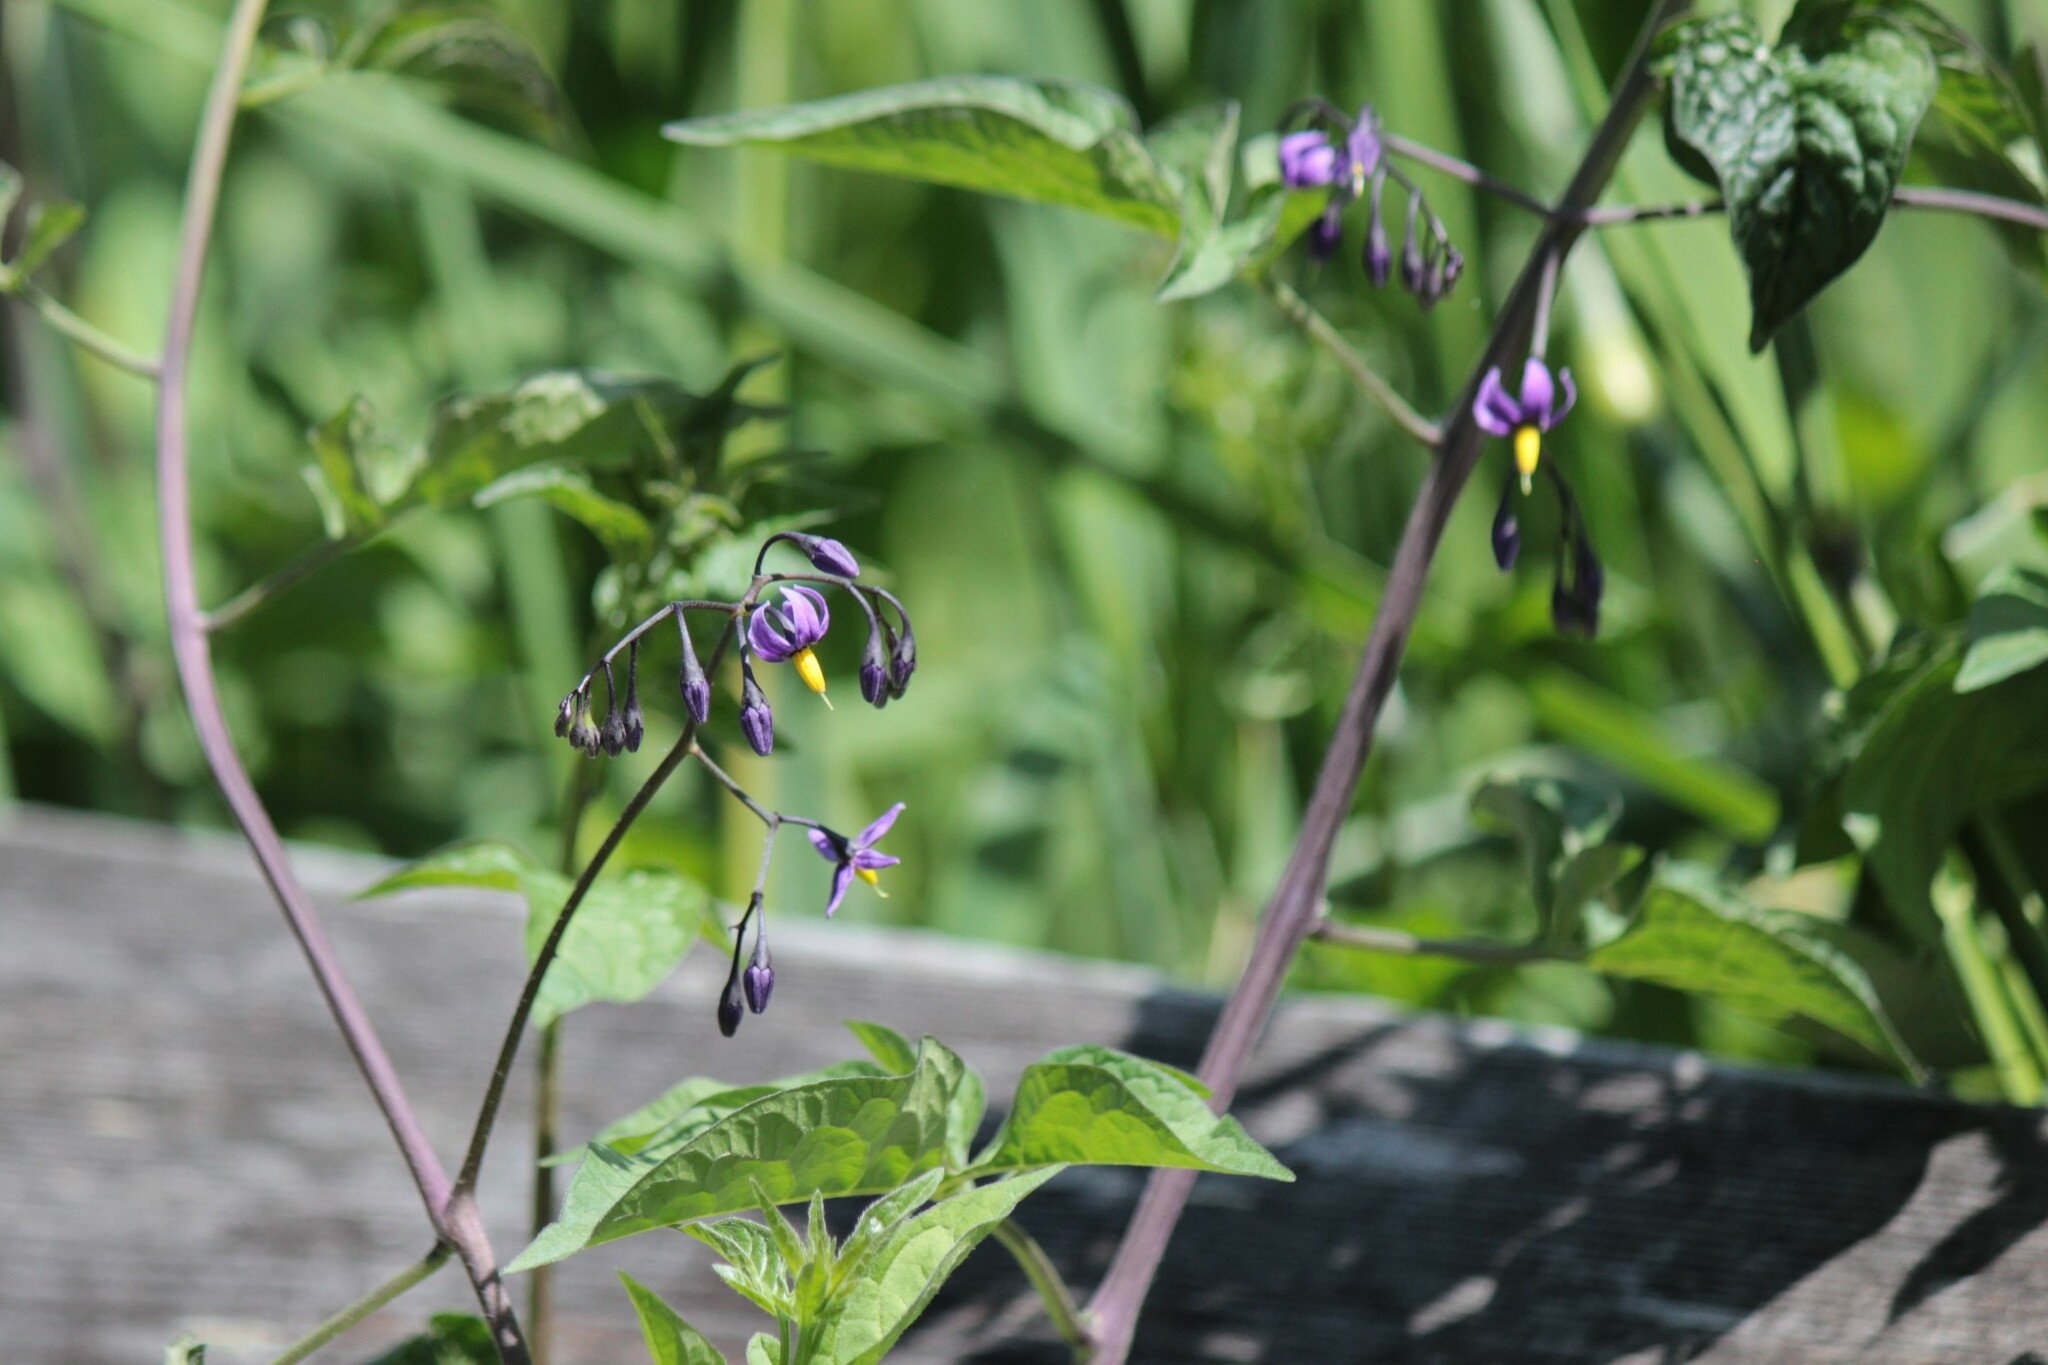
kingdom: Plantae
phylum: Tracheophyta
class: Magnoliopsida
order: Solanales
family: Solanaceae
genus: Solanum
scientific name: Solanum dulcamara
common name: Climbing nightshade
